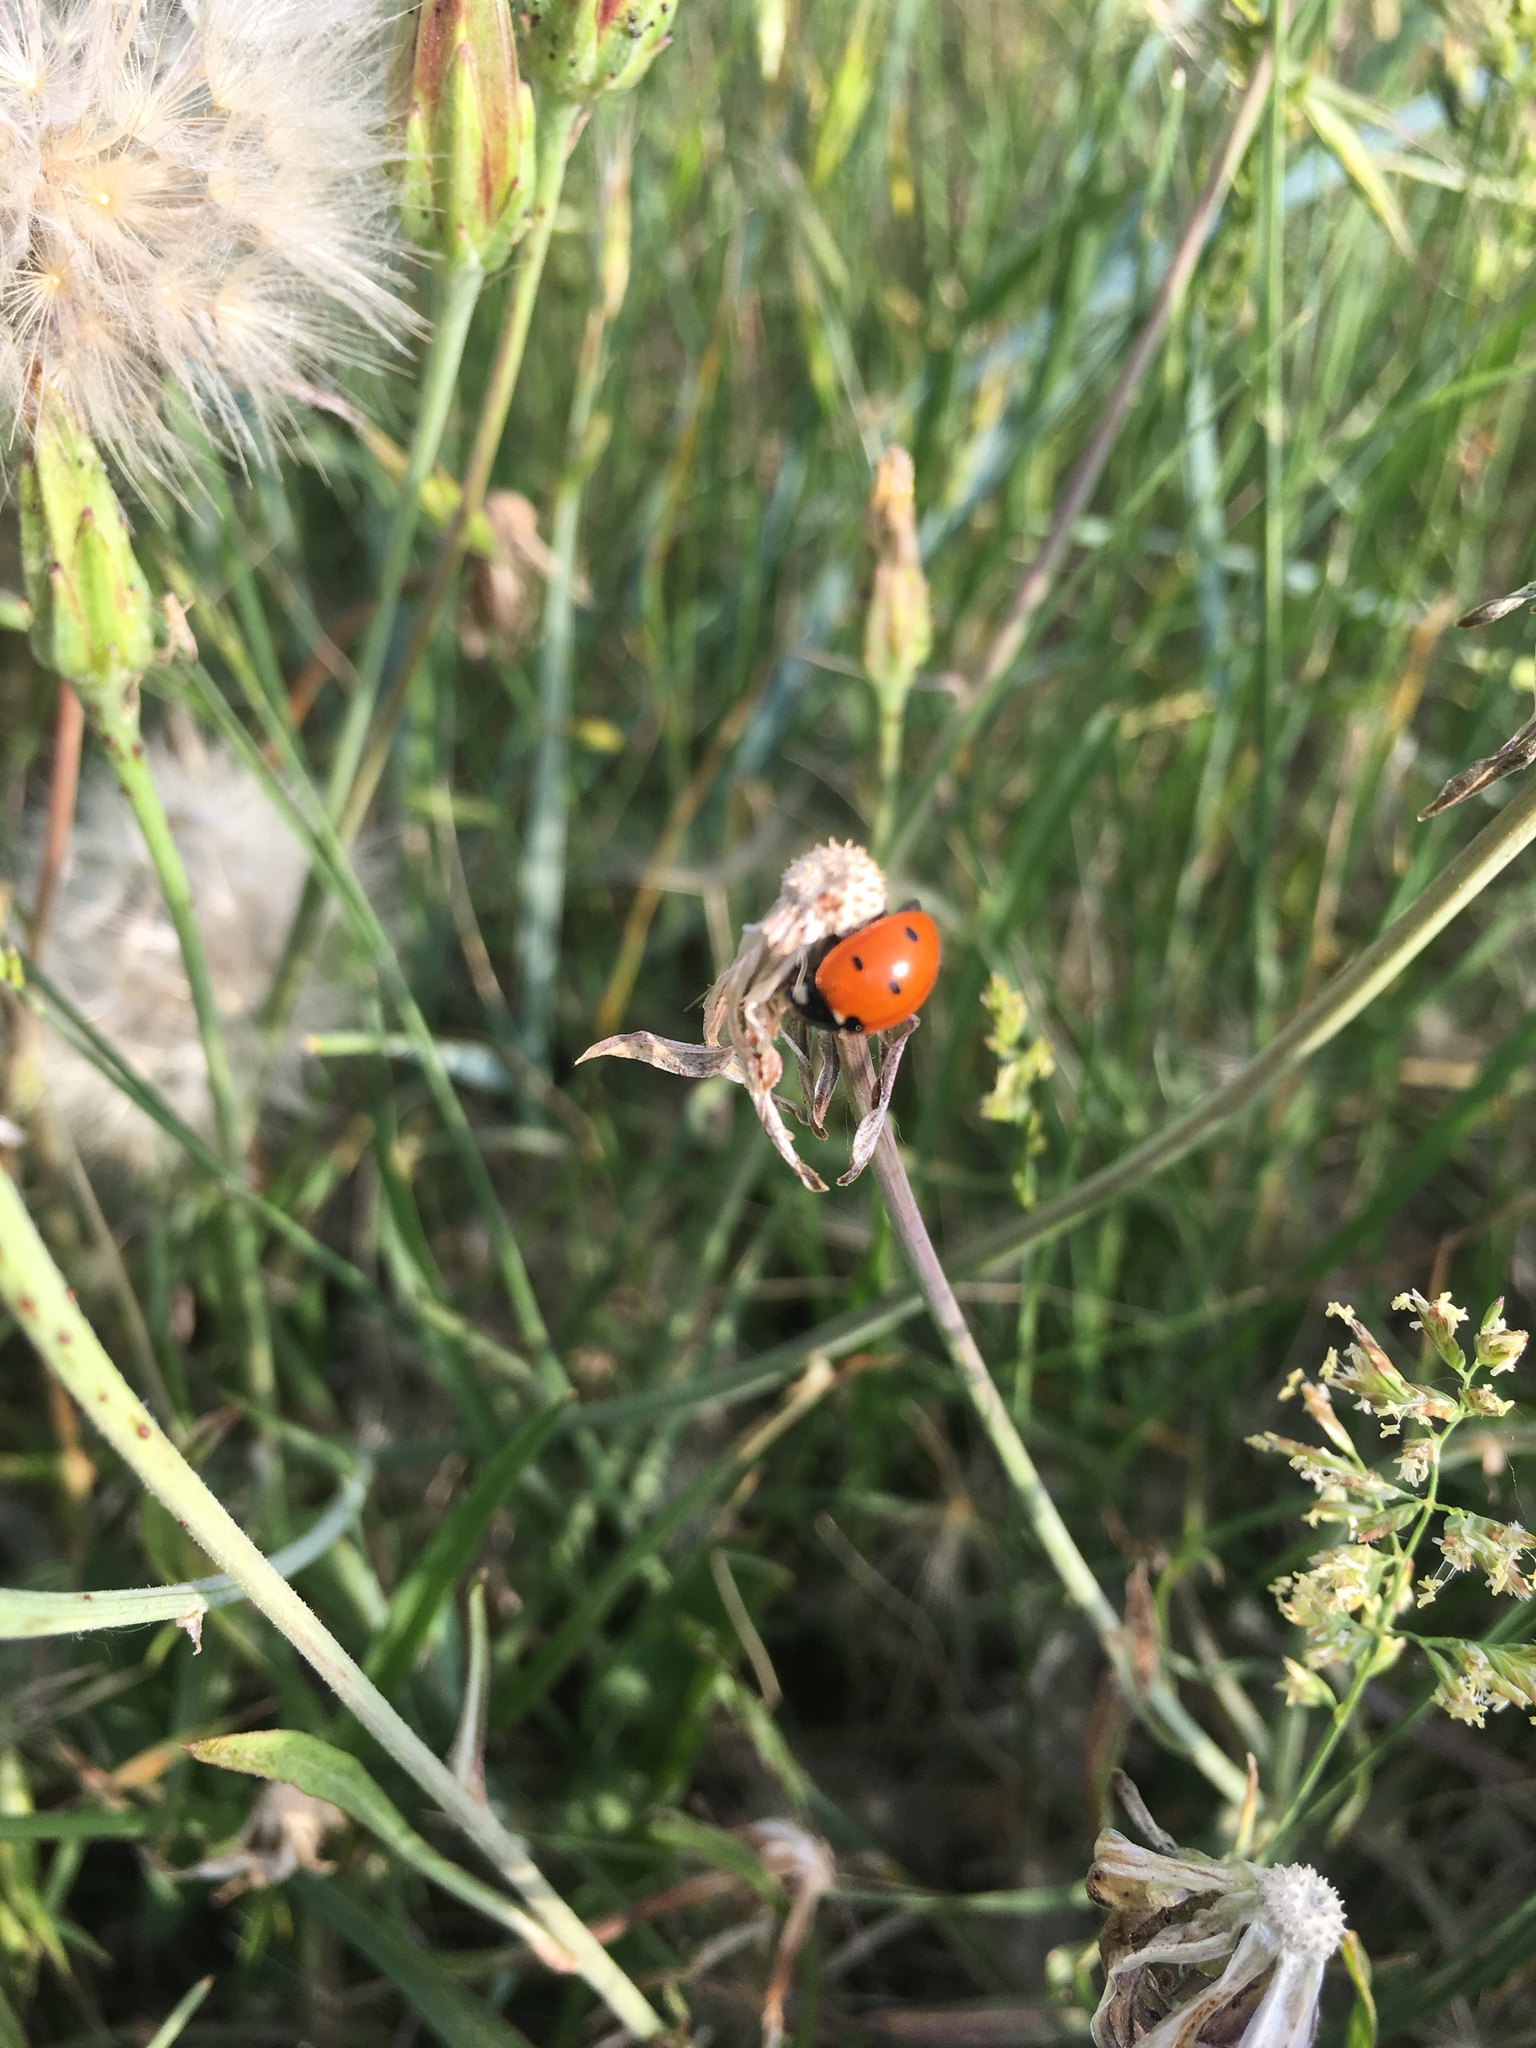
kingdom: Animalia
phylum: Arthropoda
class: Insecta
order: Coleoptera
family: Coccinellidae
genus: Coccinella
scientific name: Coccinella septempunctata
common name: Sevenspotted lady beetle
